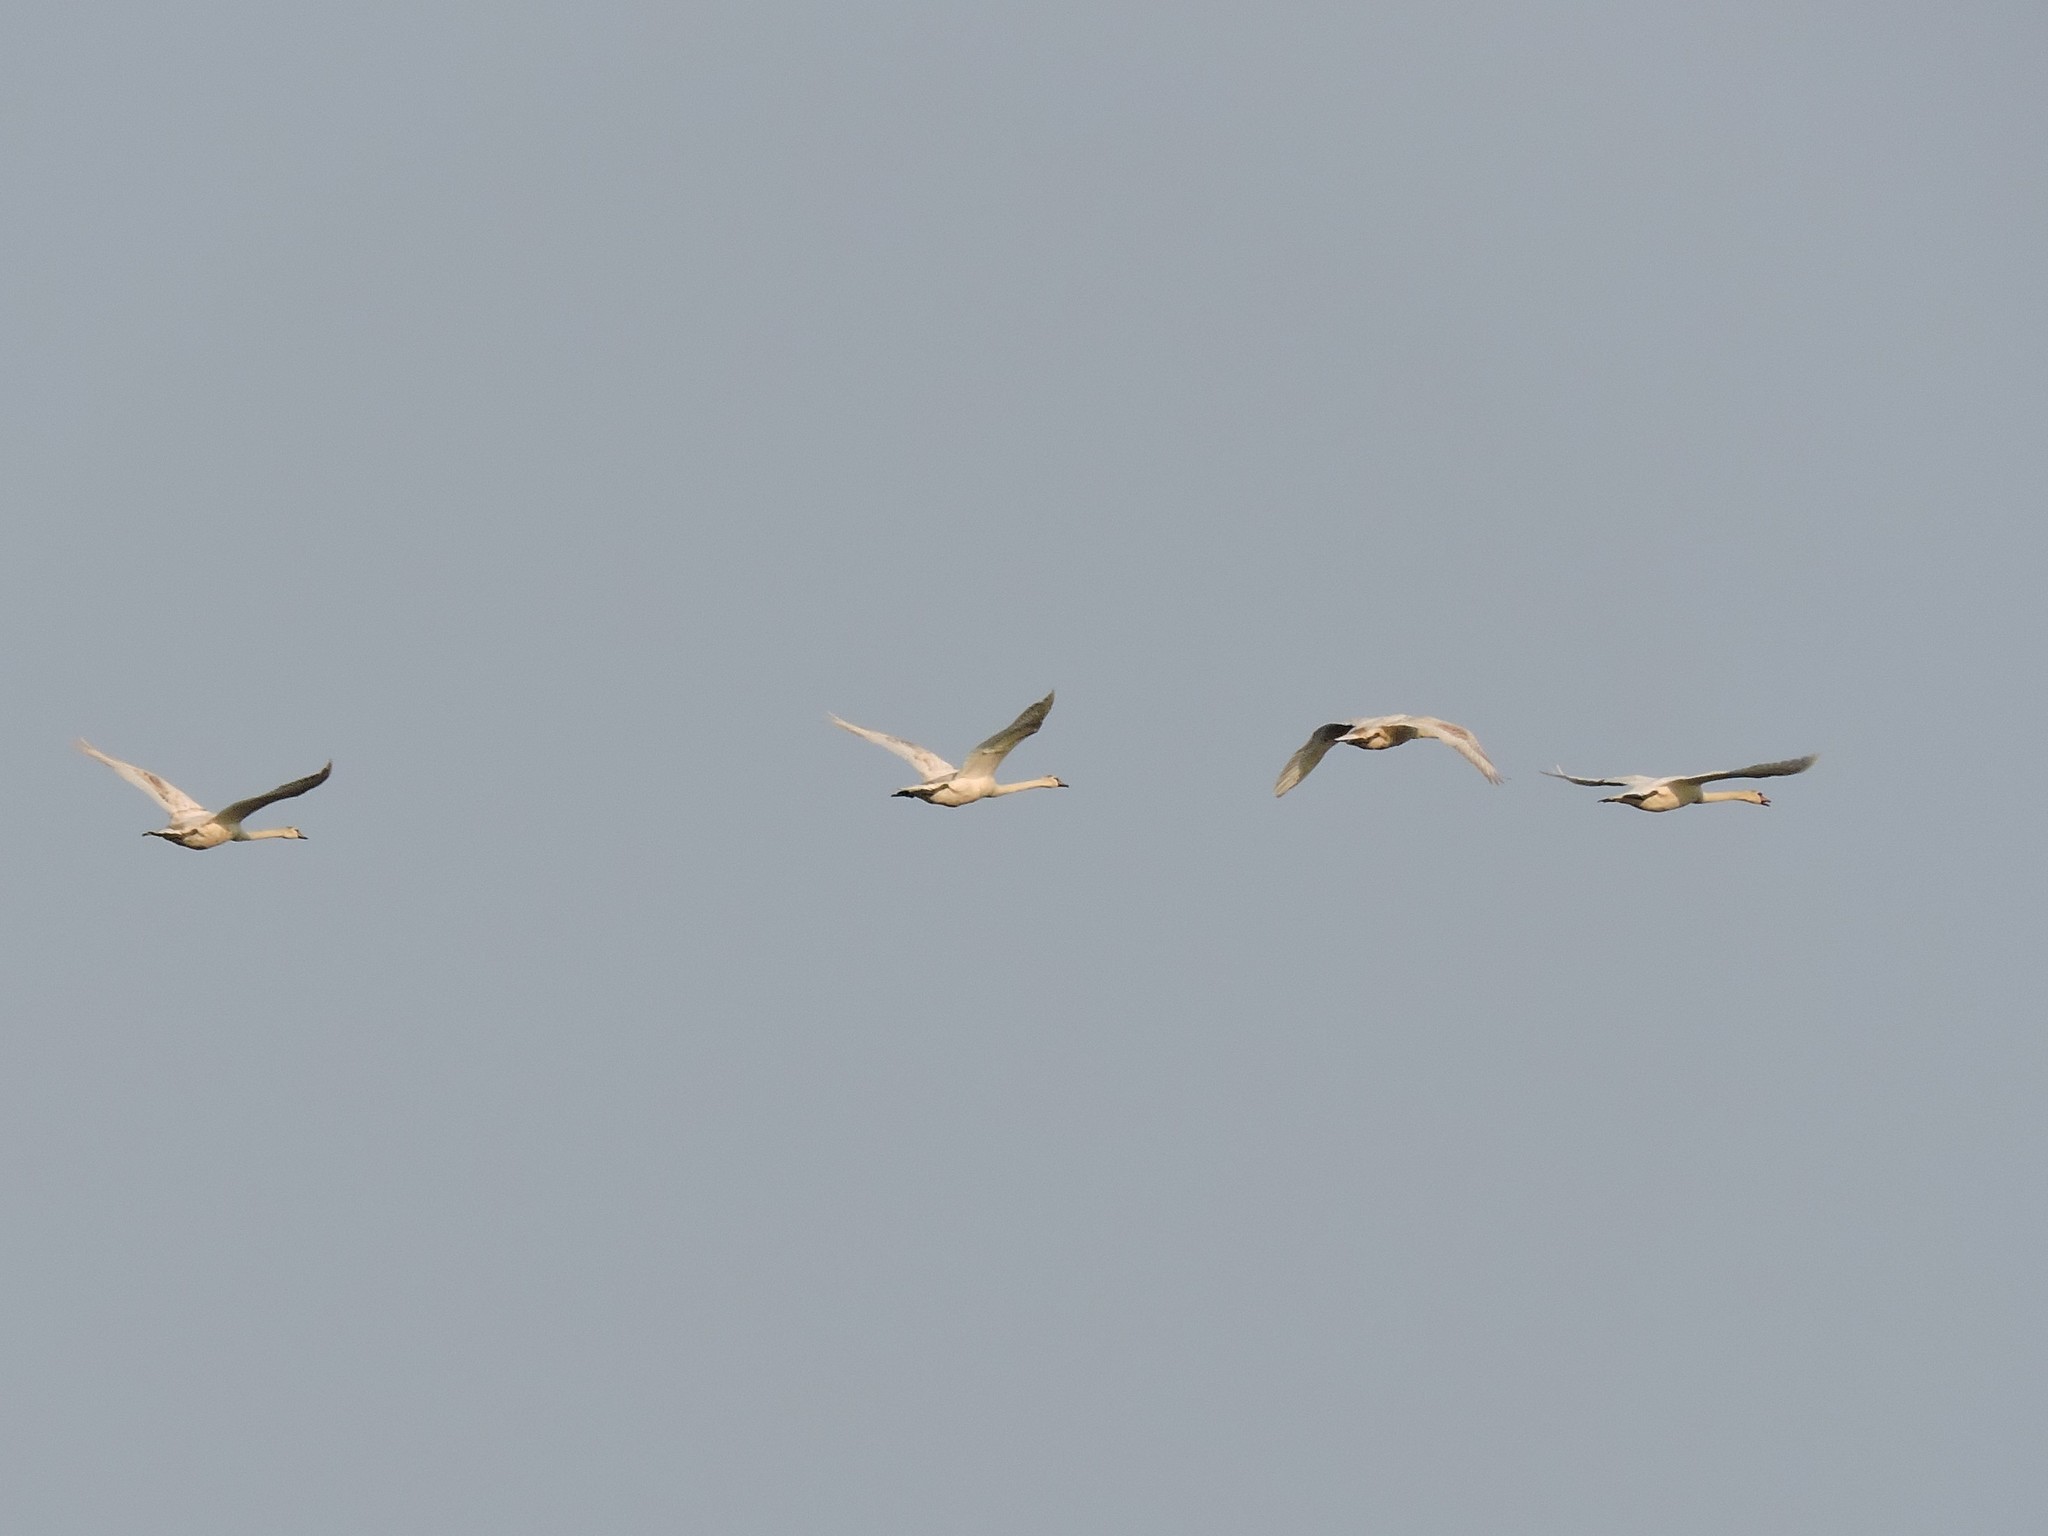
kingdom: Animalia
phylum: Chordata
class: Aves
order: Anseriformes
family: Anatidae
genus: Cygnus
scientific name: Cygnus olor
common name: Mute swan
